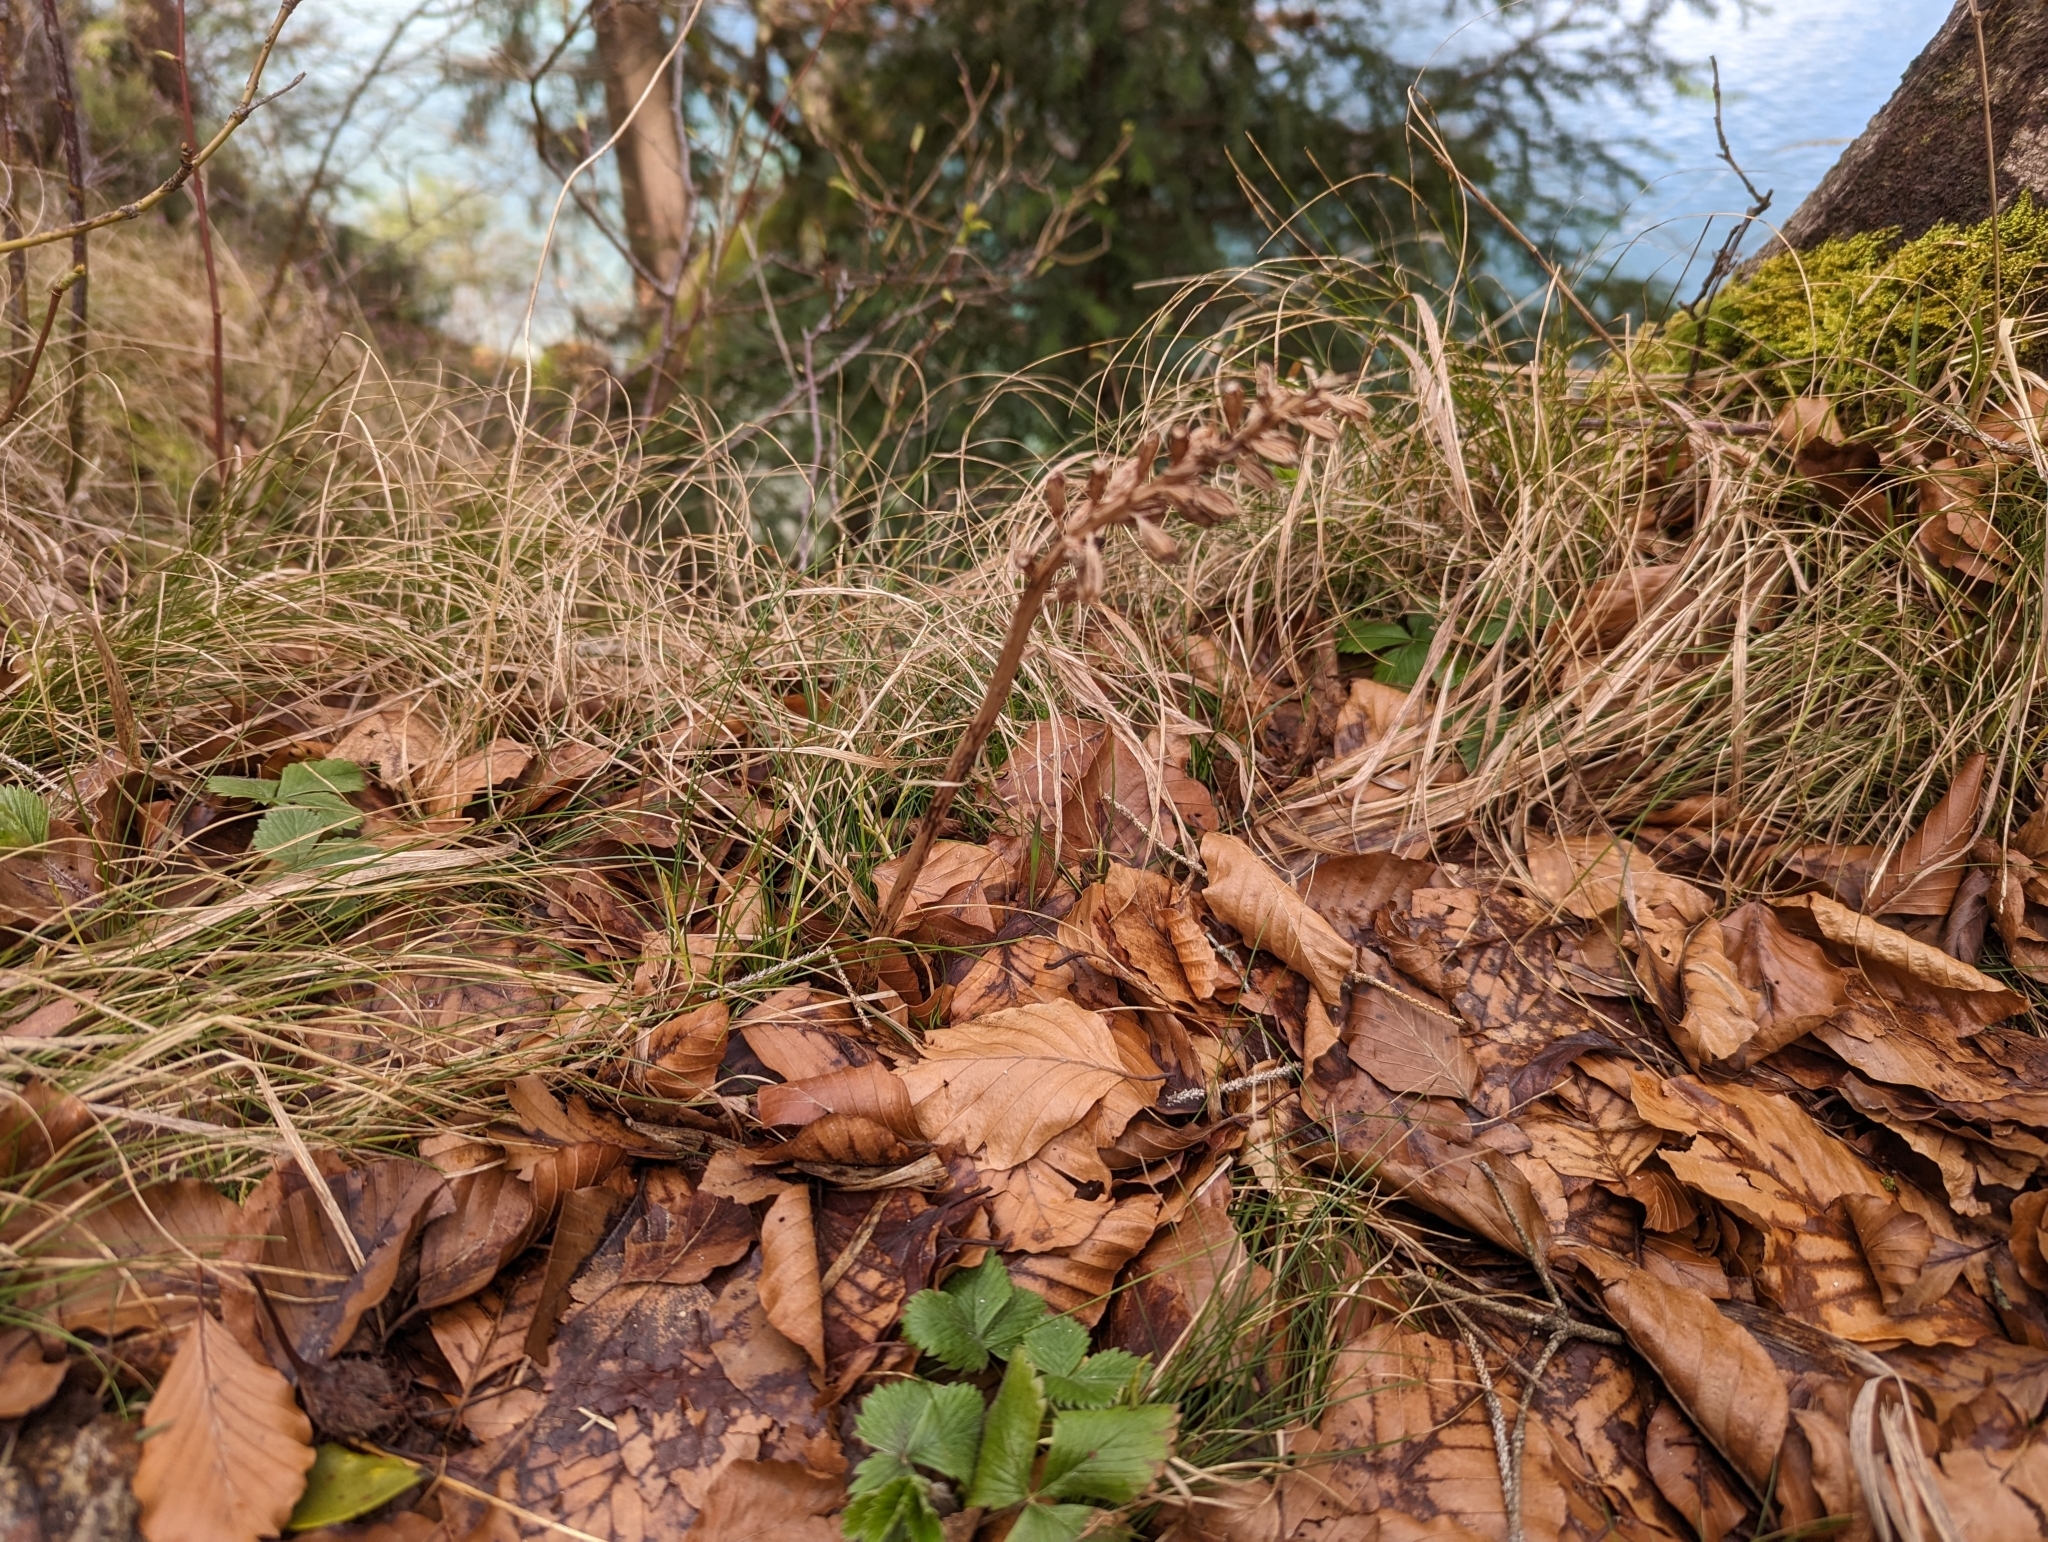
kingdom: Plantae
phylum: Tracheophyta
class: Liliopsida
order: Asparagales
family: Orchidaceae
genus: Neottia
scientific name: Neottia nidus-avis
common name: Bird's-nest orchid
